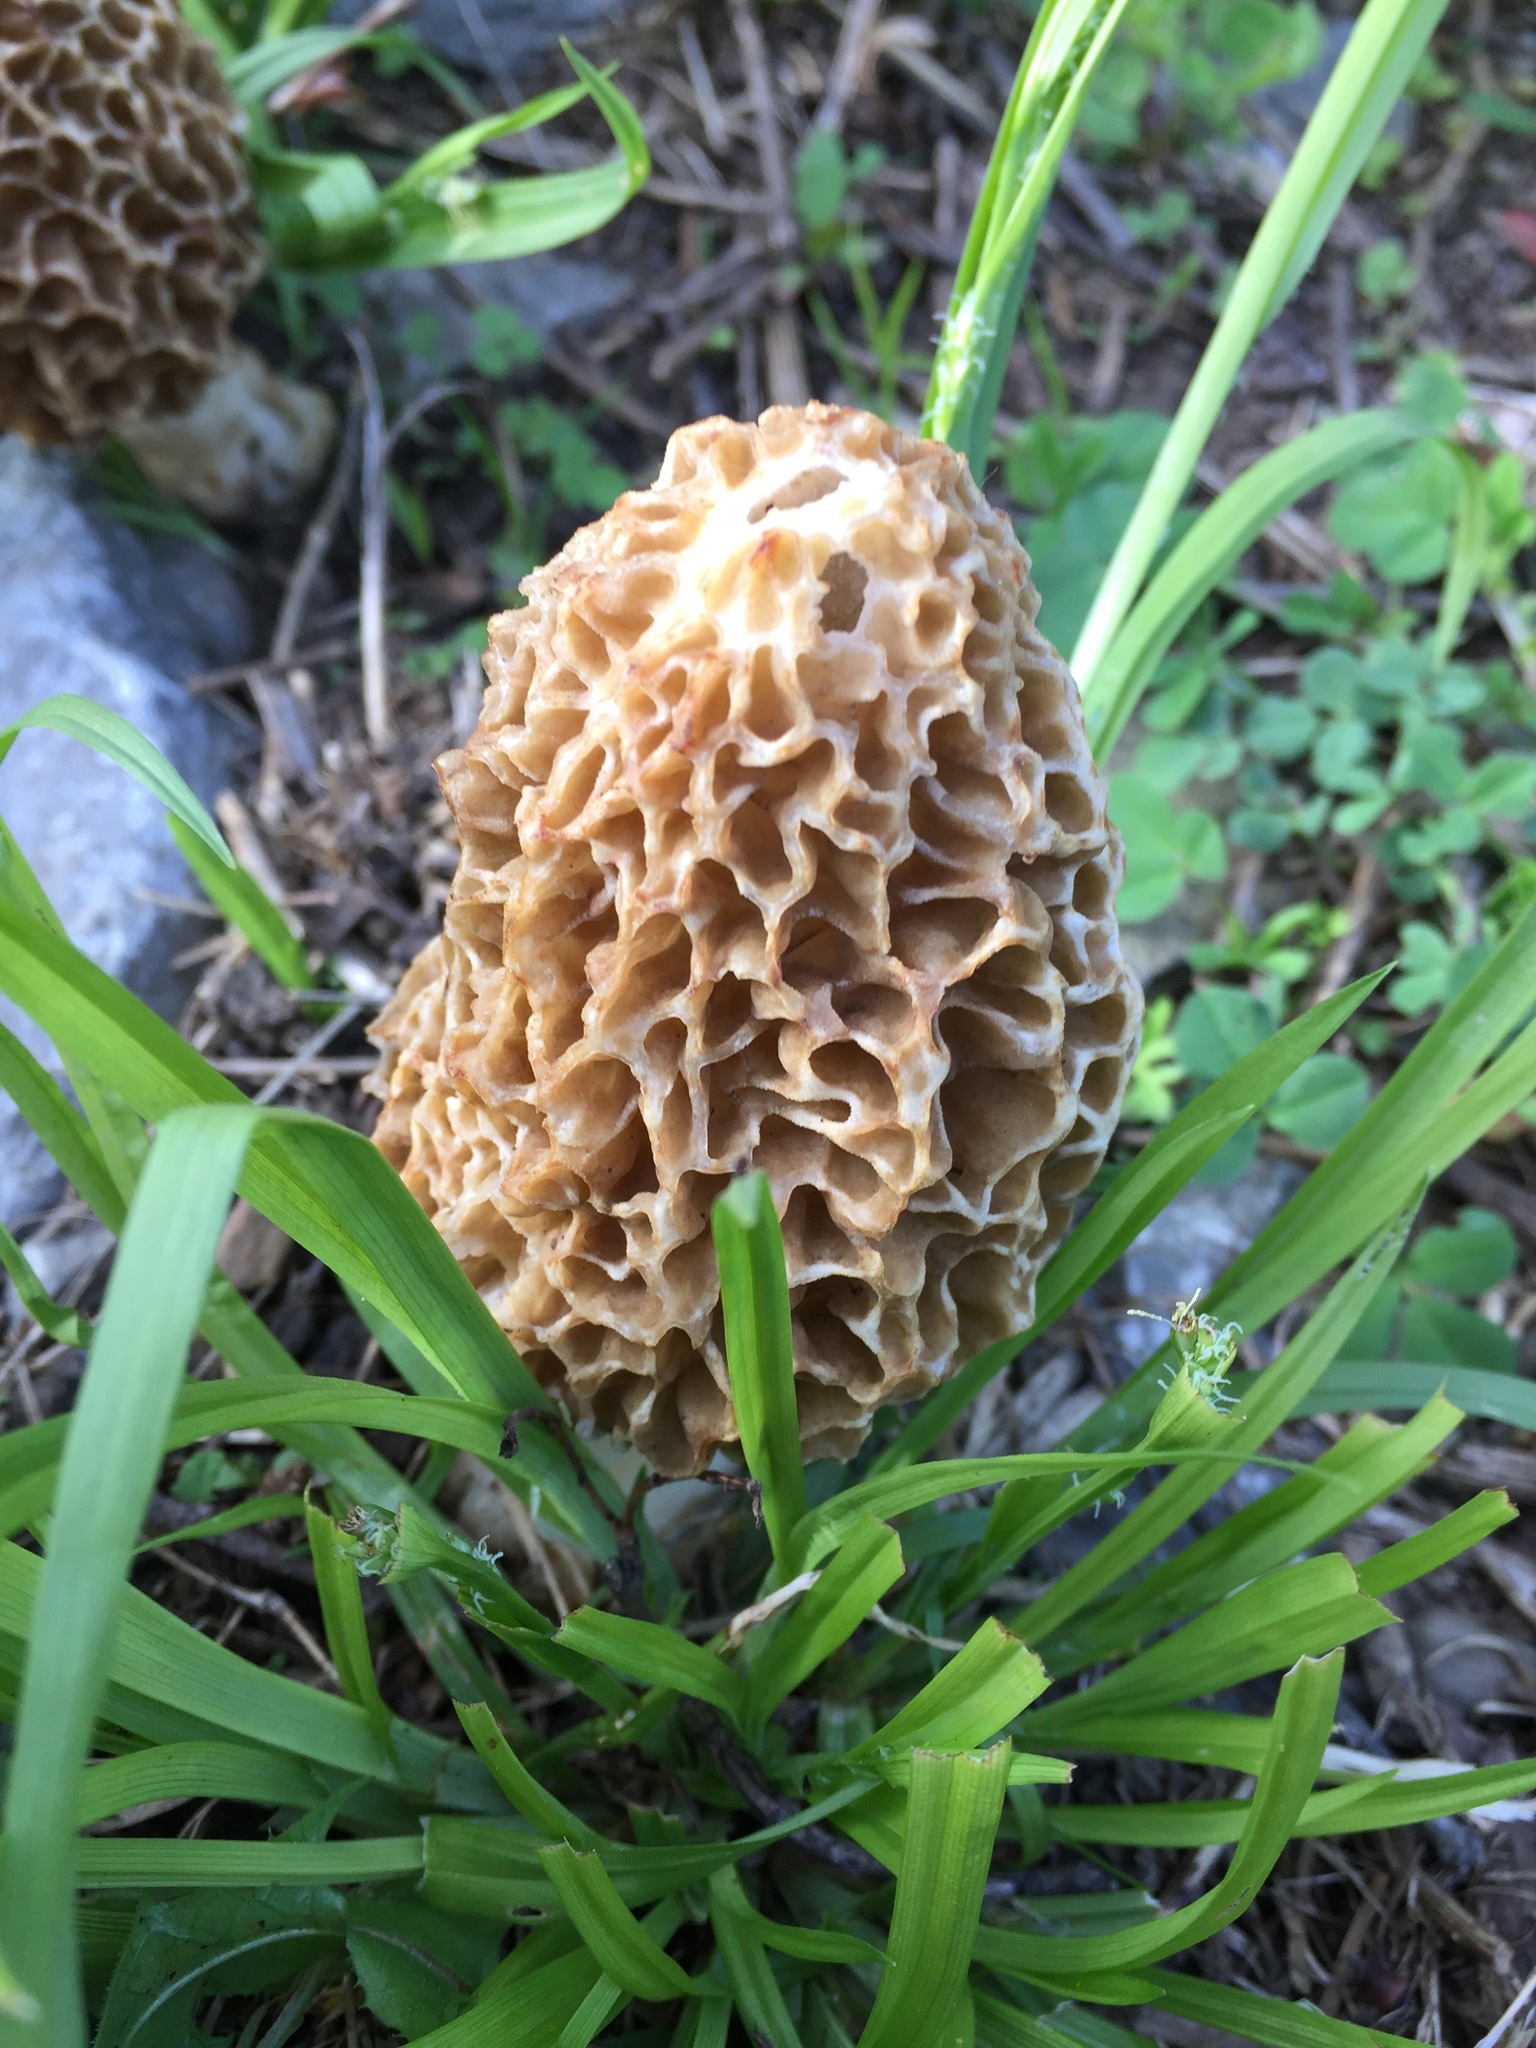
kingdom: Fungi
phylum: Ascomycota
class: Pezizomycetes
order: Pezizales
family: Morchellaceae
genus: Morchella
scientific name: Morchella americana
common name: White morel
